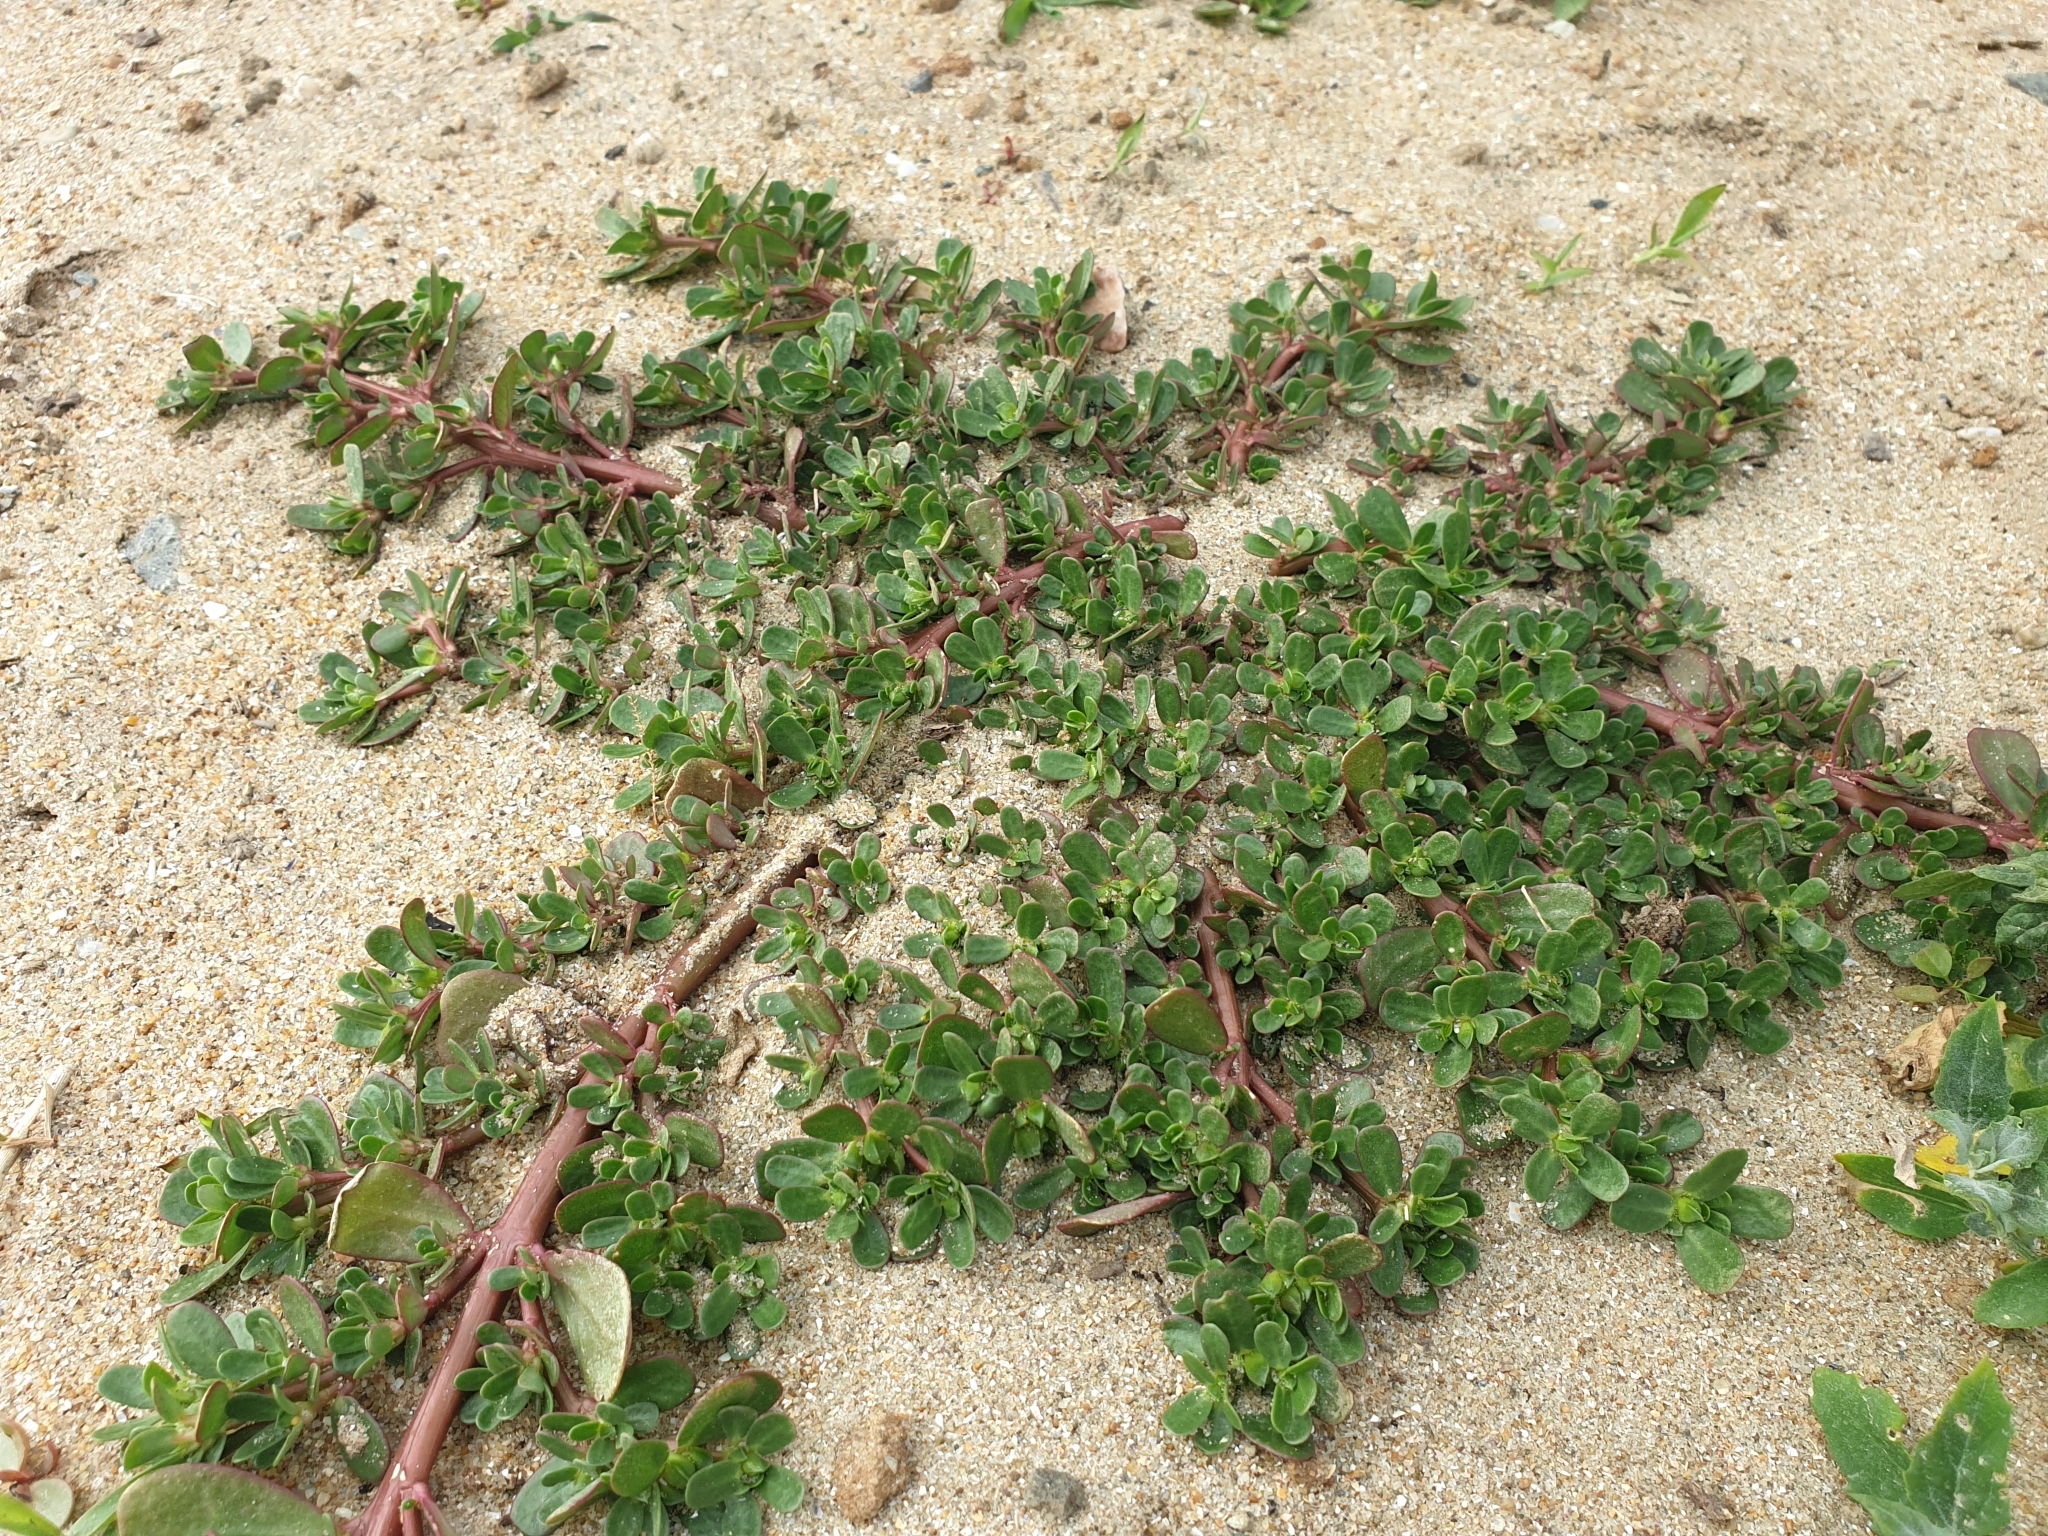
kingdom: Plantae
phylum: Tracheophyta
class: Magnoliopsida
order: Caryophyllales
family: Portulacaceae
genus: Portulaca
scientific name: Portulaca oleracea
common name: Common purslane
